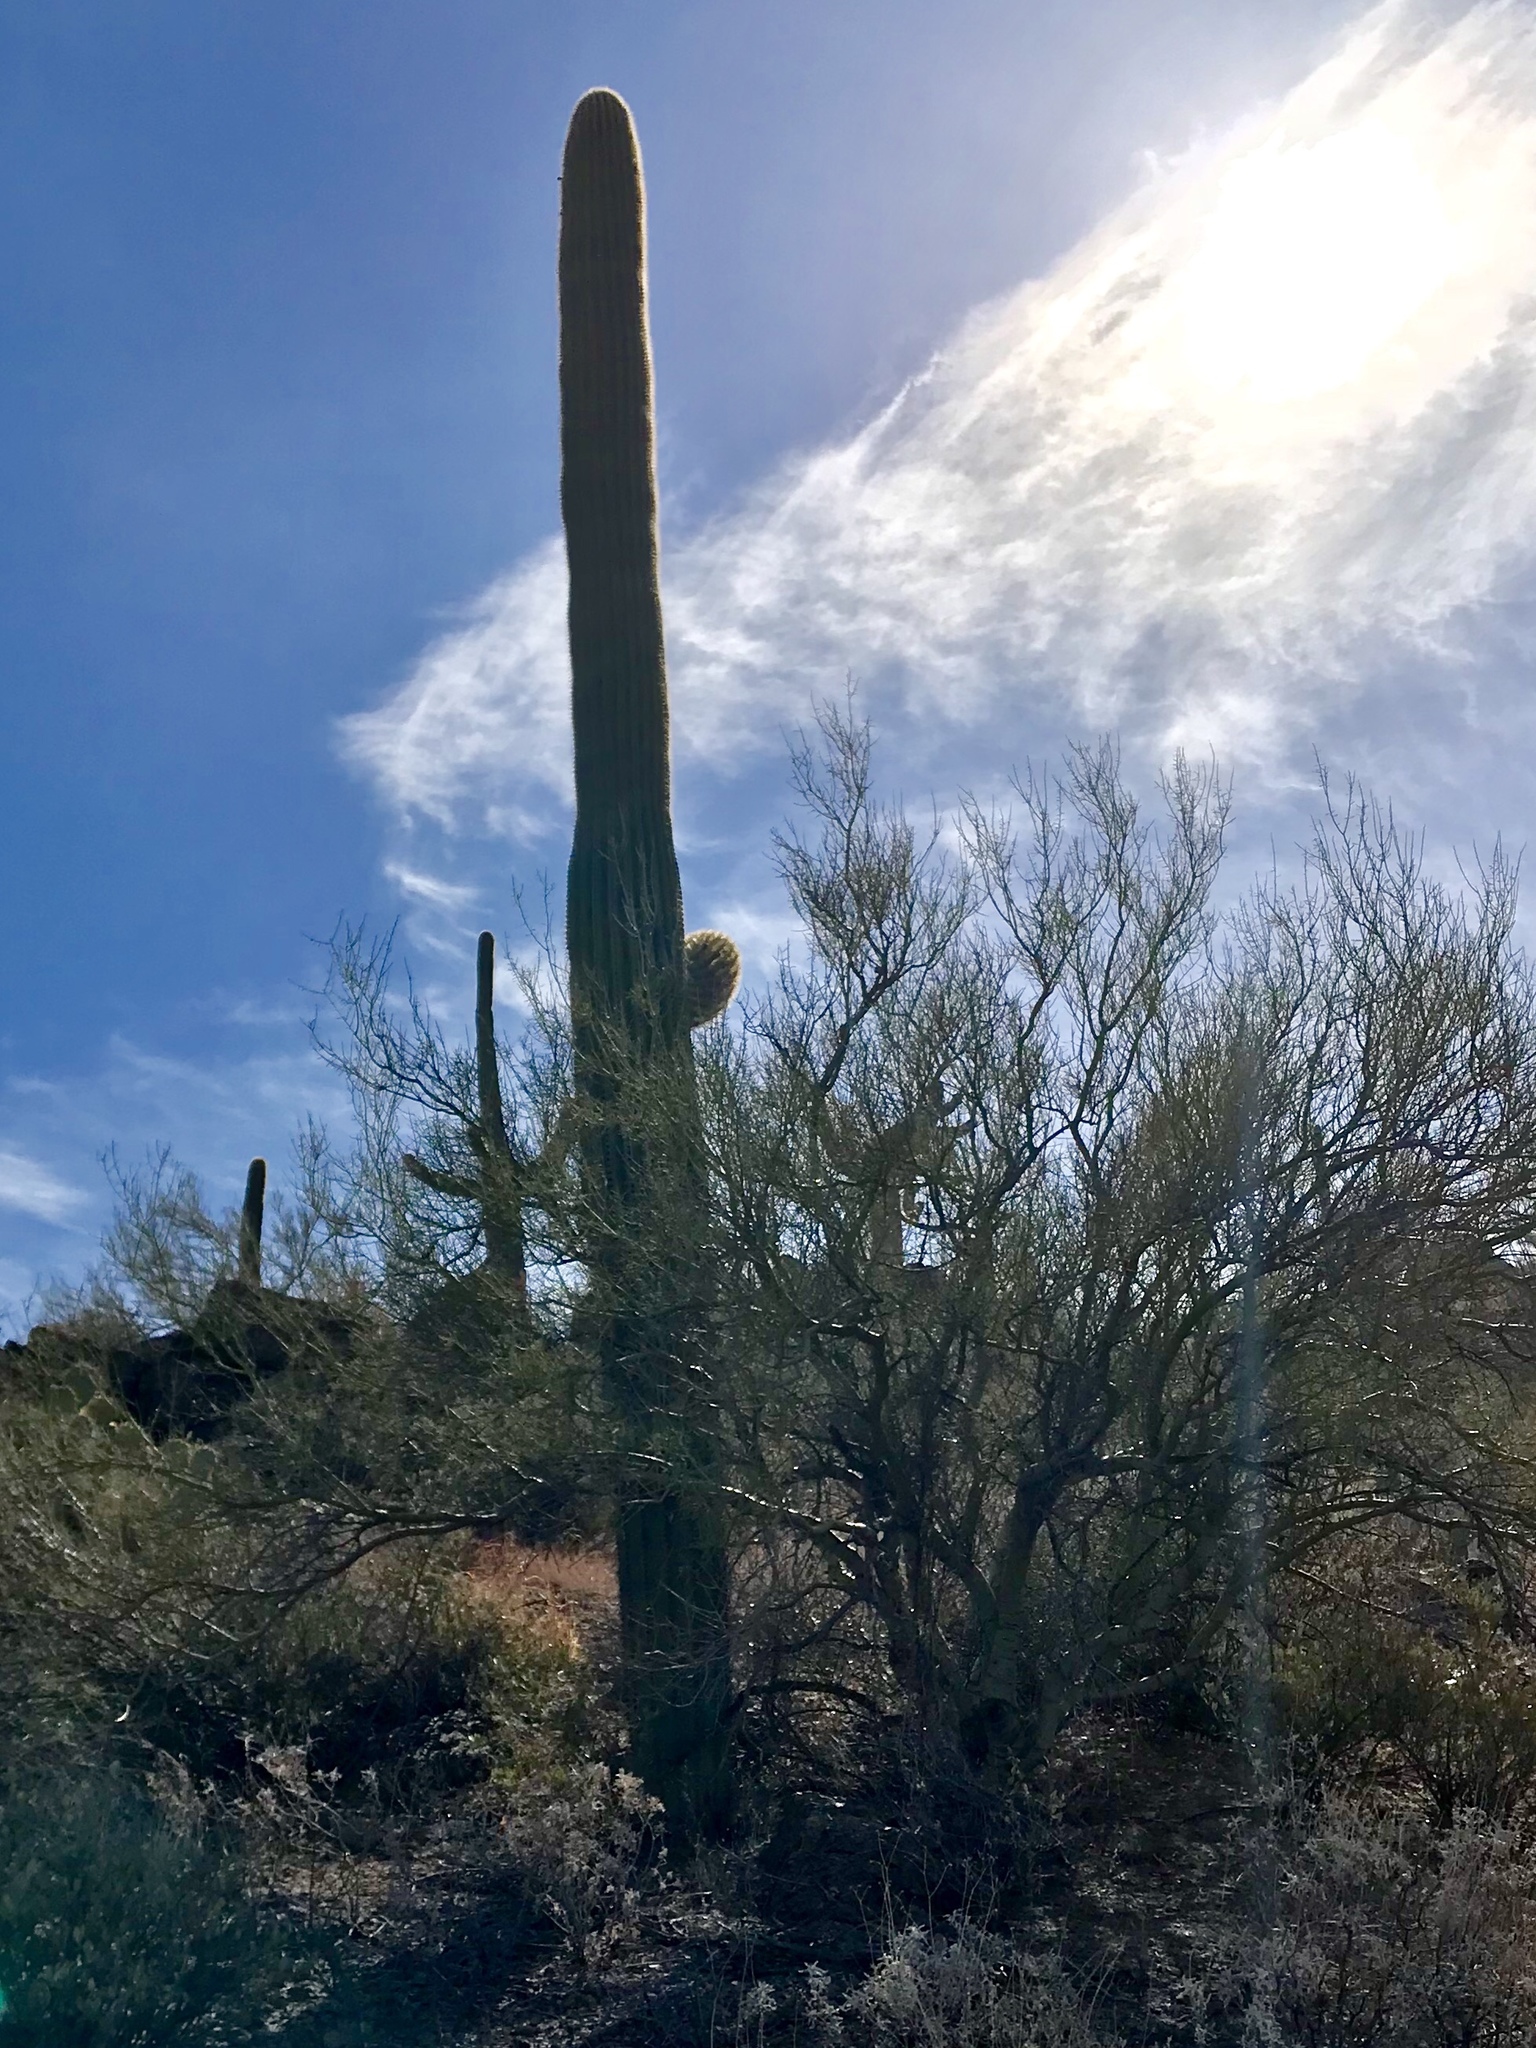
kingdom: Plantae
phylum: Tracheophyta
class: Magnoliopsida
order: Caryophyllales
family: Cactaceae
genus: Carnegiea
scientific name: Carnegiea gigantea
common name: Saguaro
